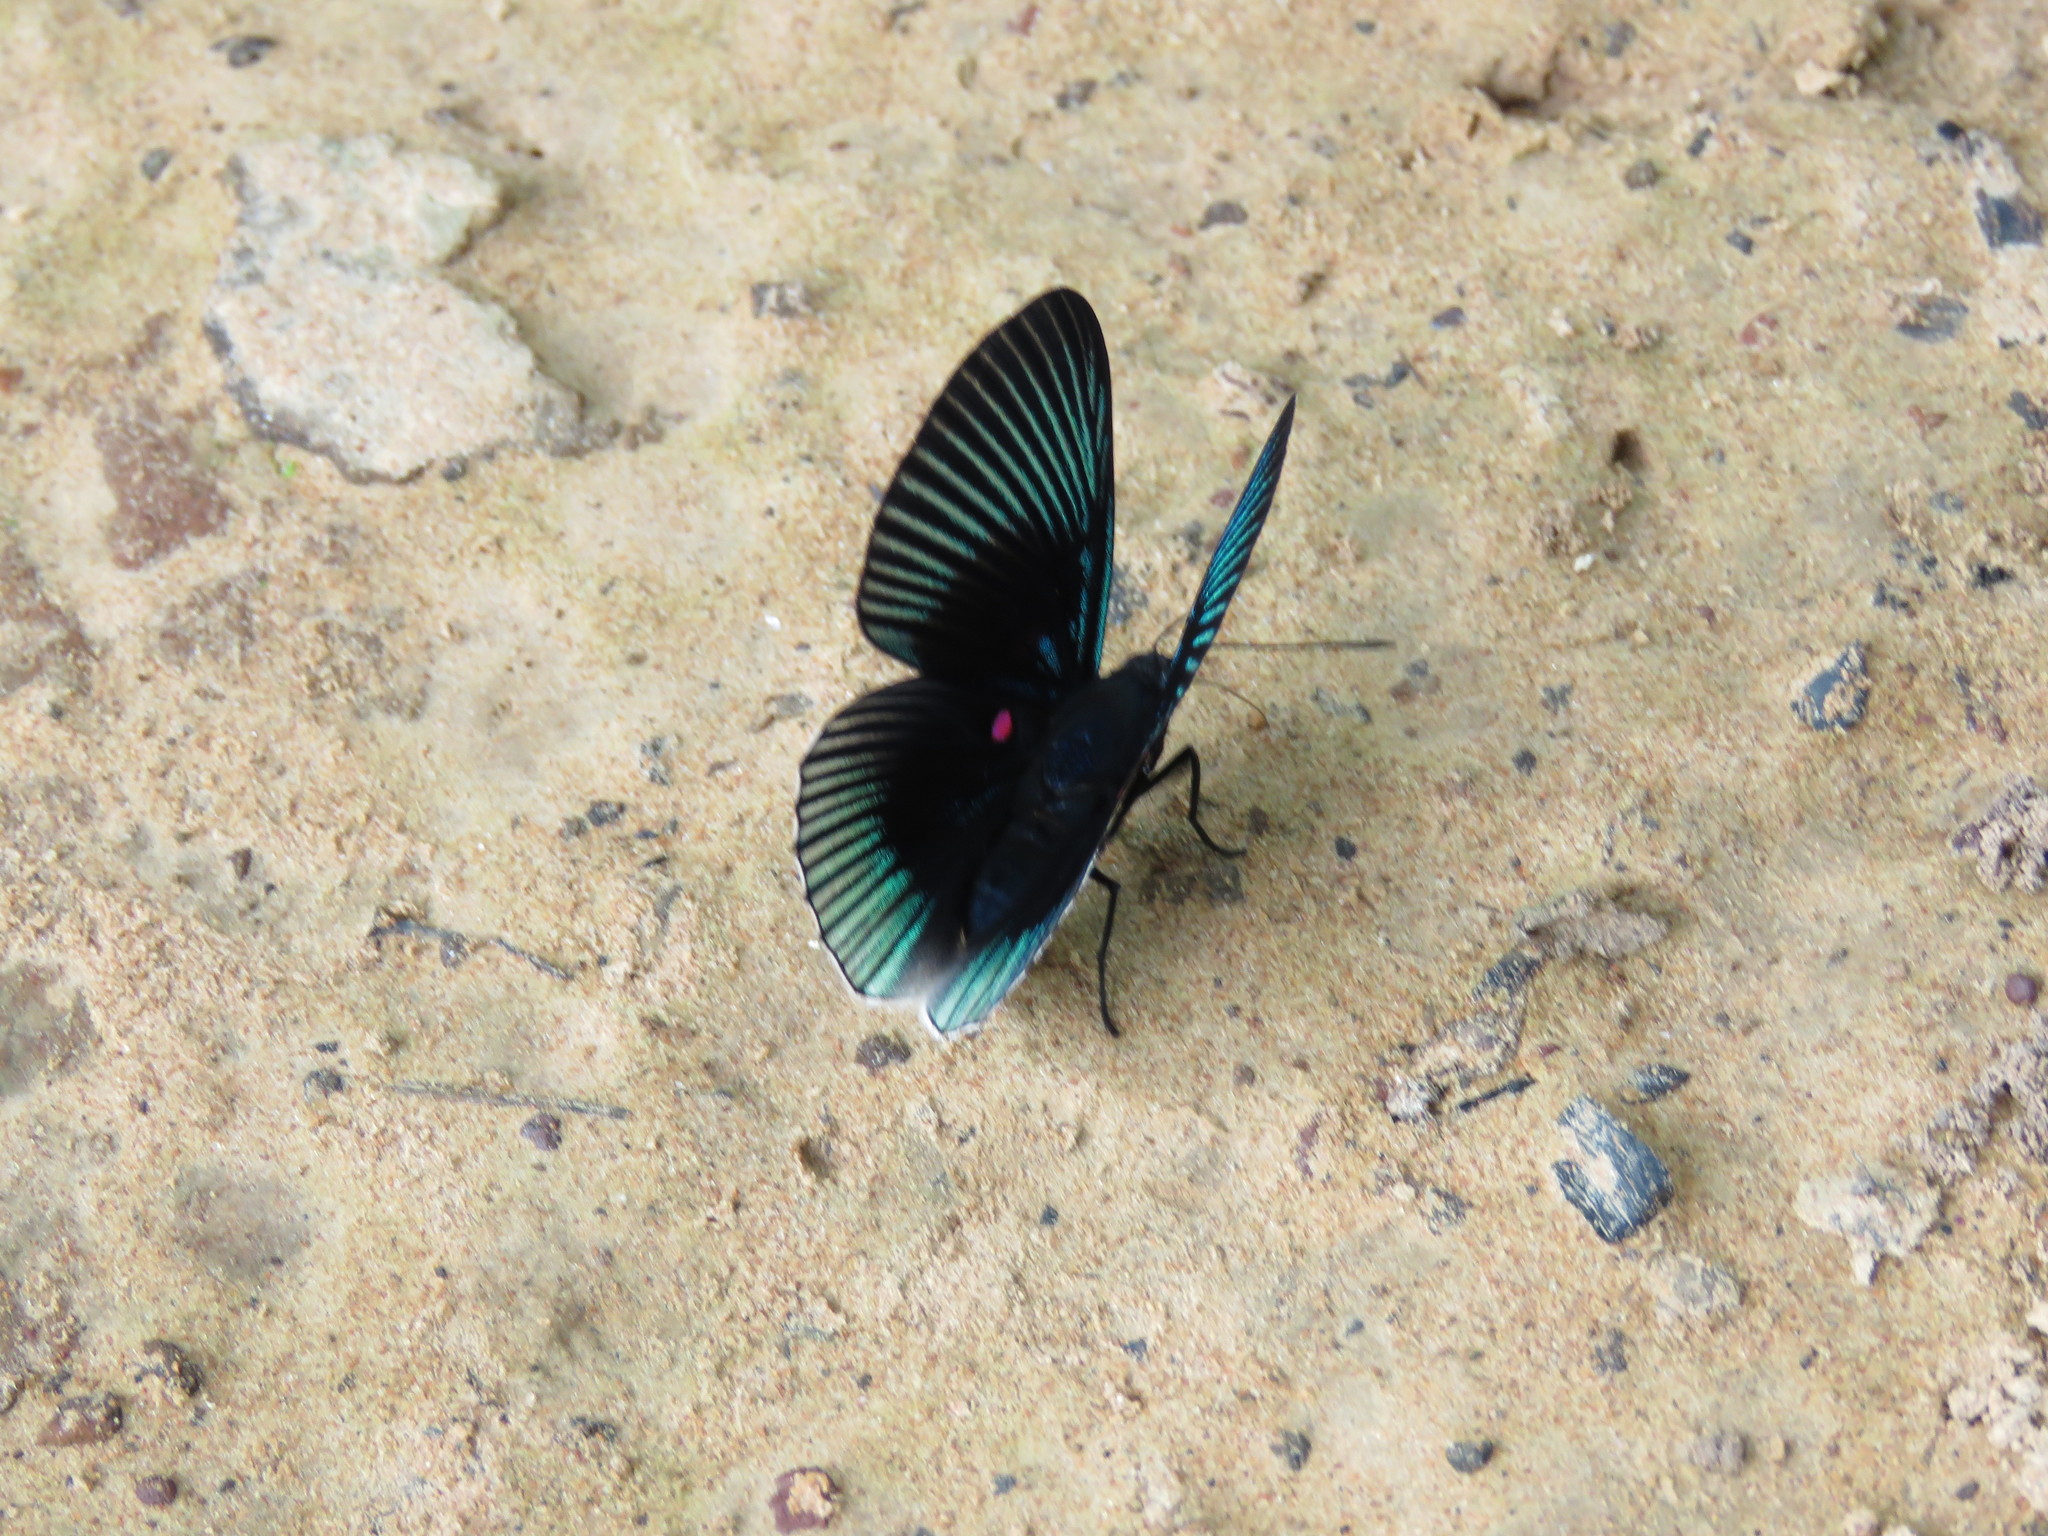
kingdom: Animalia
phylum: Arthropoda
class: Insecta
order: Lepidoptera
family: Riodinidae
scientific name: Riodinidae
